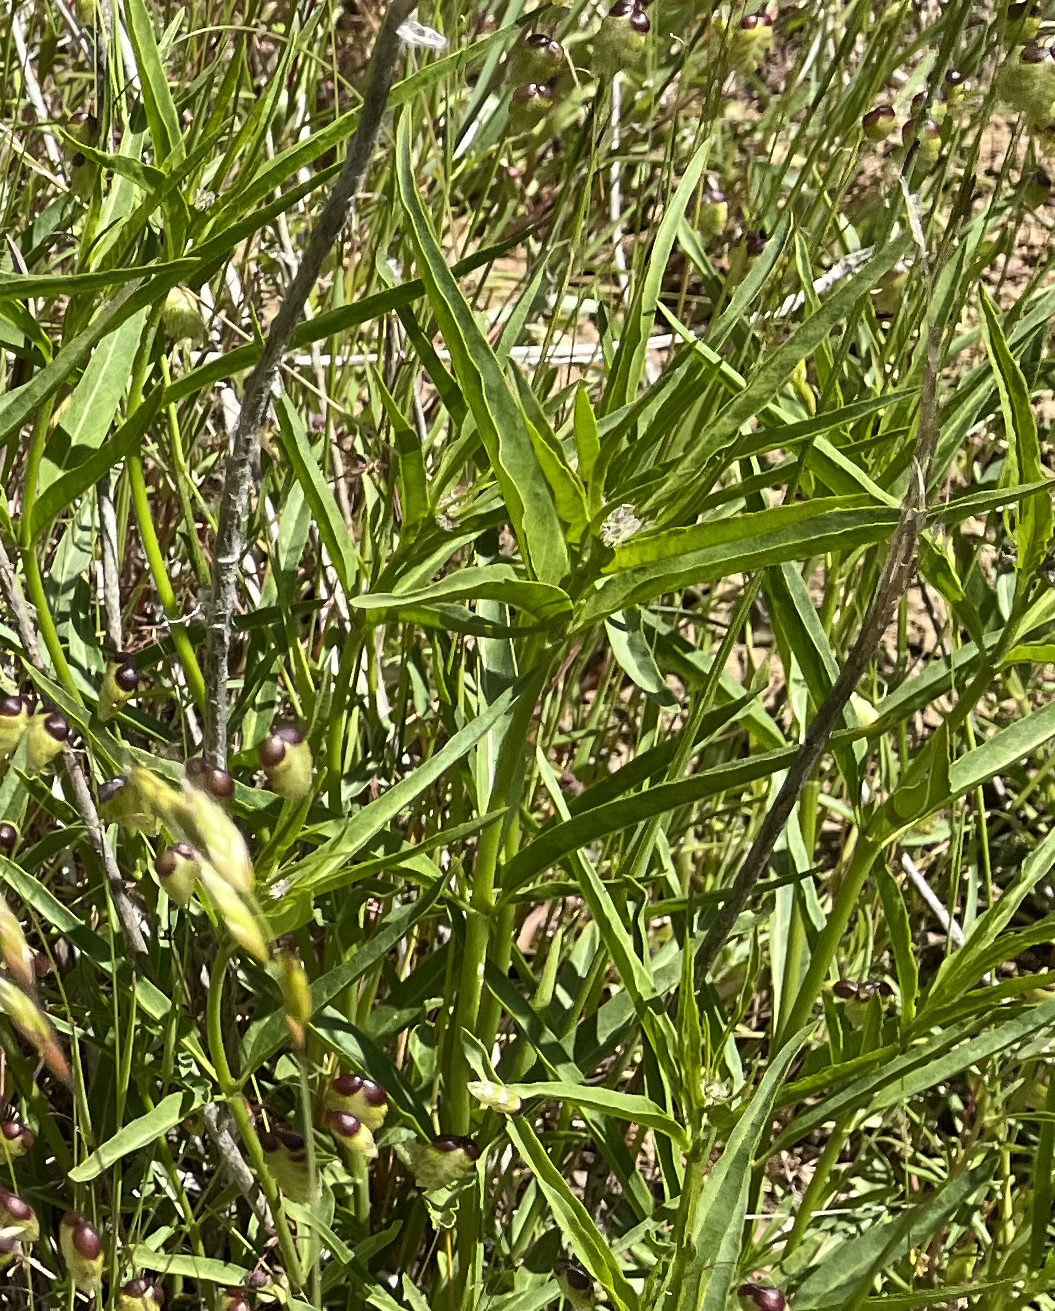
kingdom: Plantae
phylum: Tracheophyta
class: Magnoliopsida
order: Gentianales
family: Apocynaceae
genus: Asclepias
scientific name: Asclepias fascicularis
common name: Mexican milkweed
